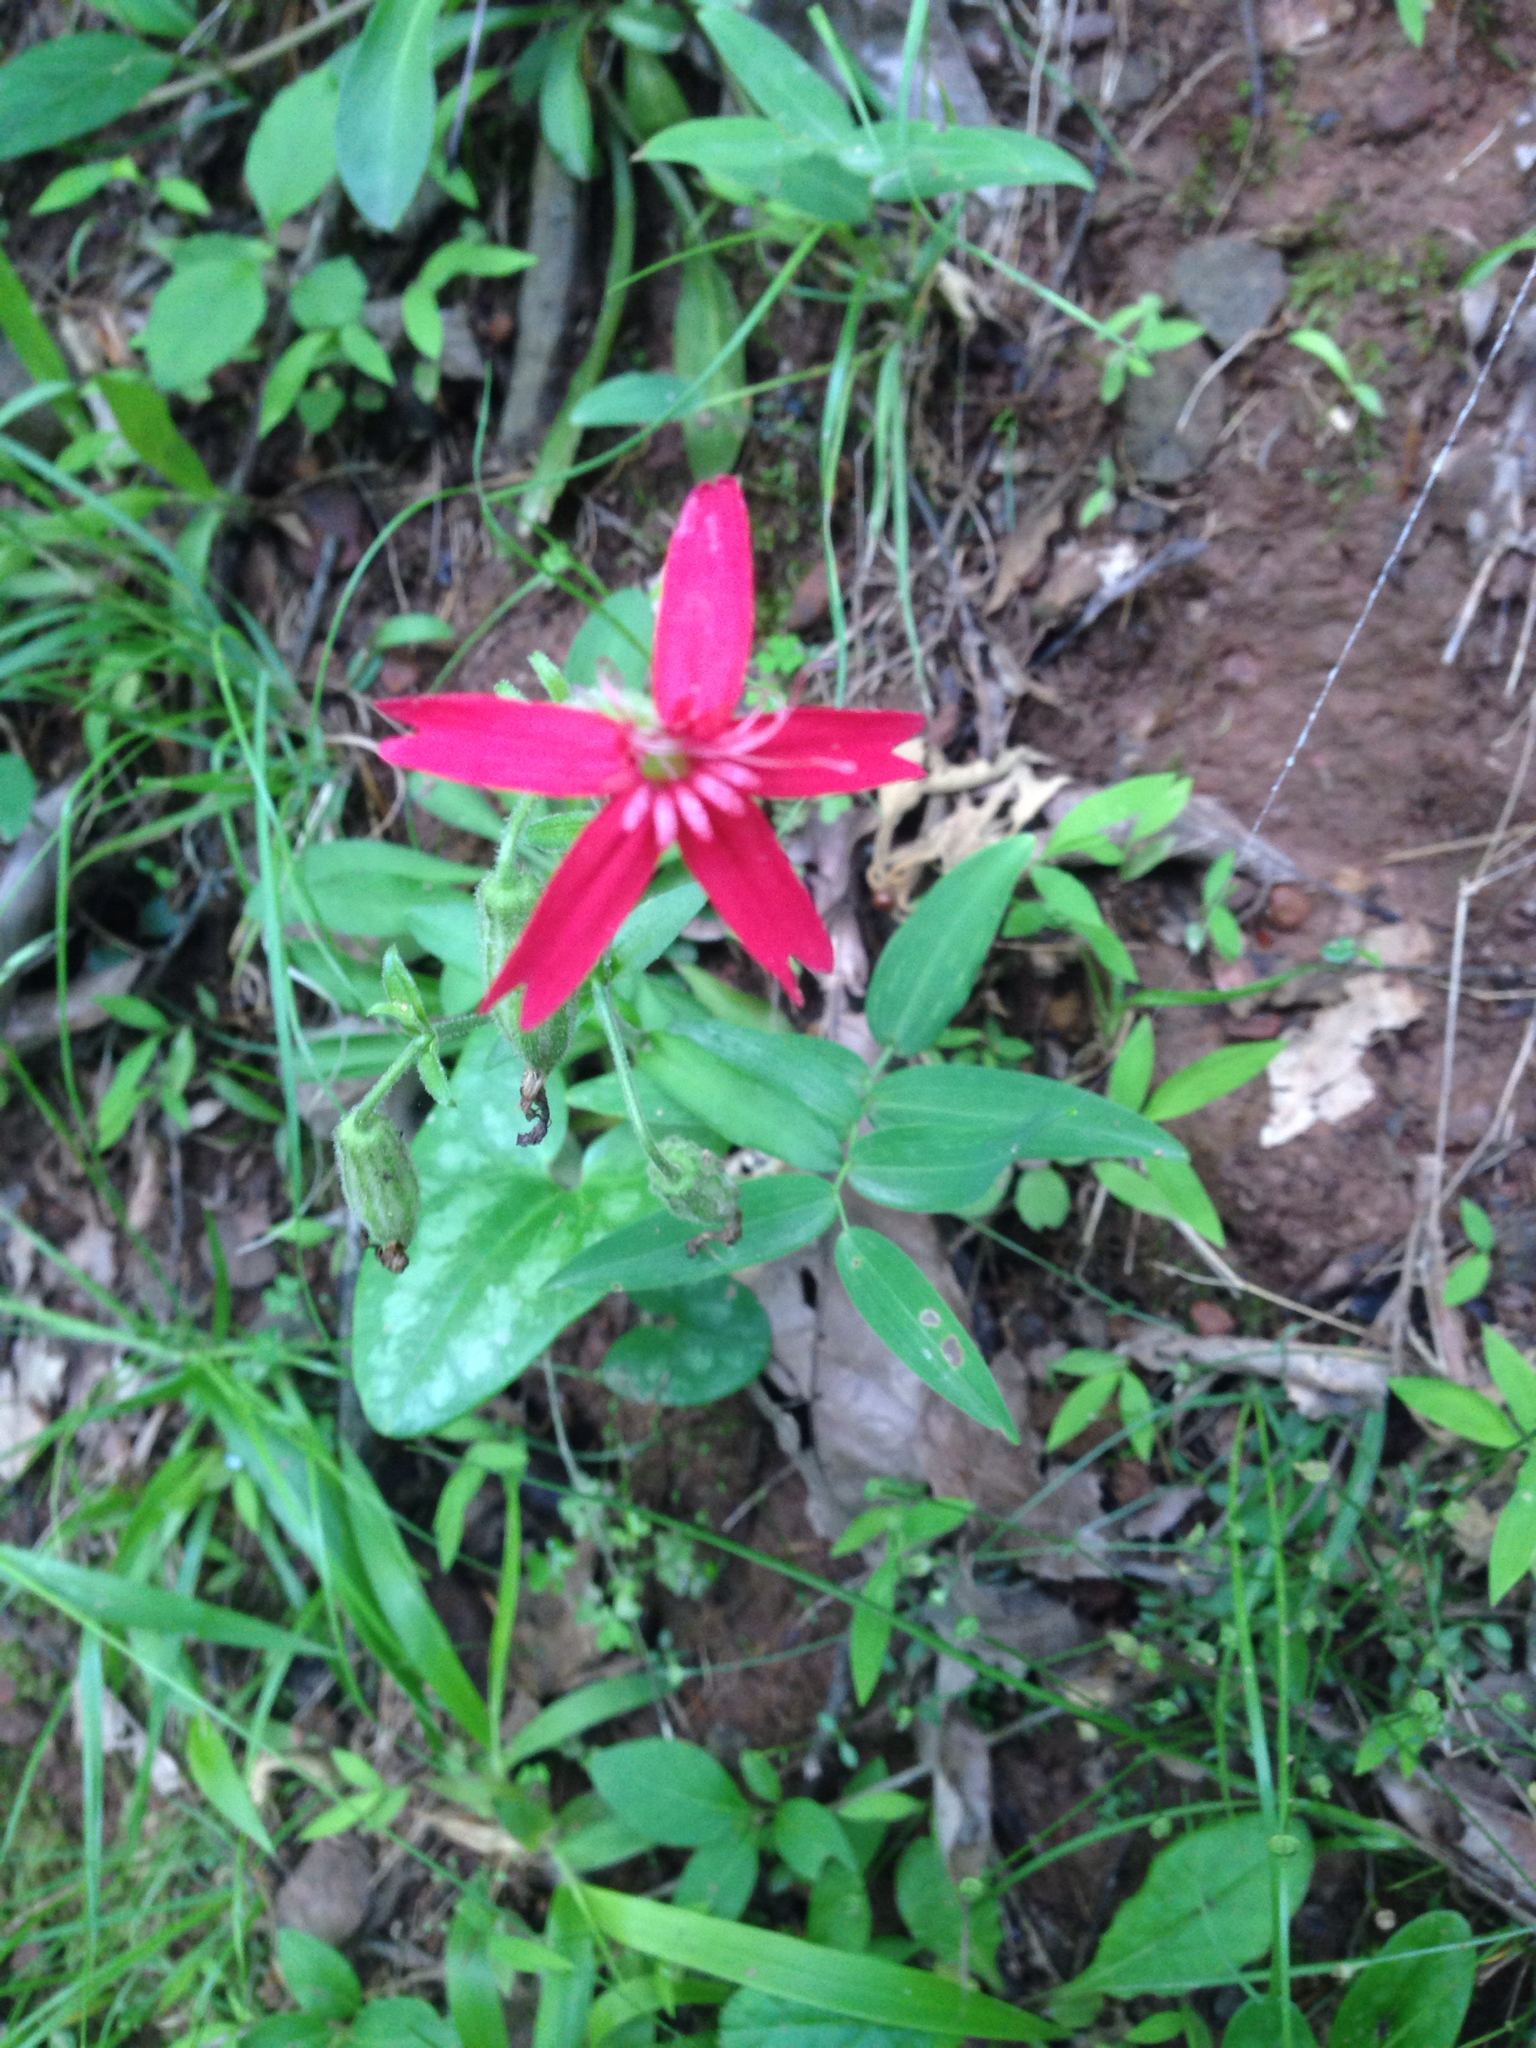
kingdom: Plantae
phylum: Tracheophyta
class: Magnoliopsida
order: Caryophyllales
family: Caryophyllaceae
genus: Silene
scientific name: Silene virginica
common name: Fire-pink
